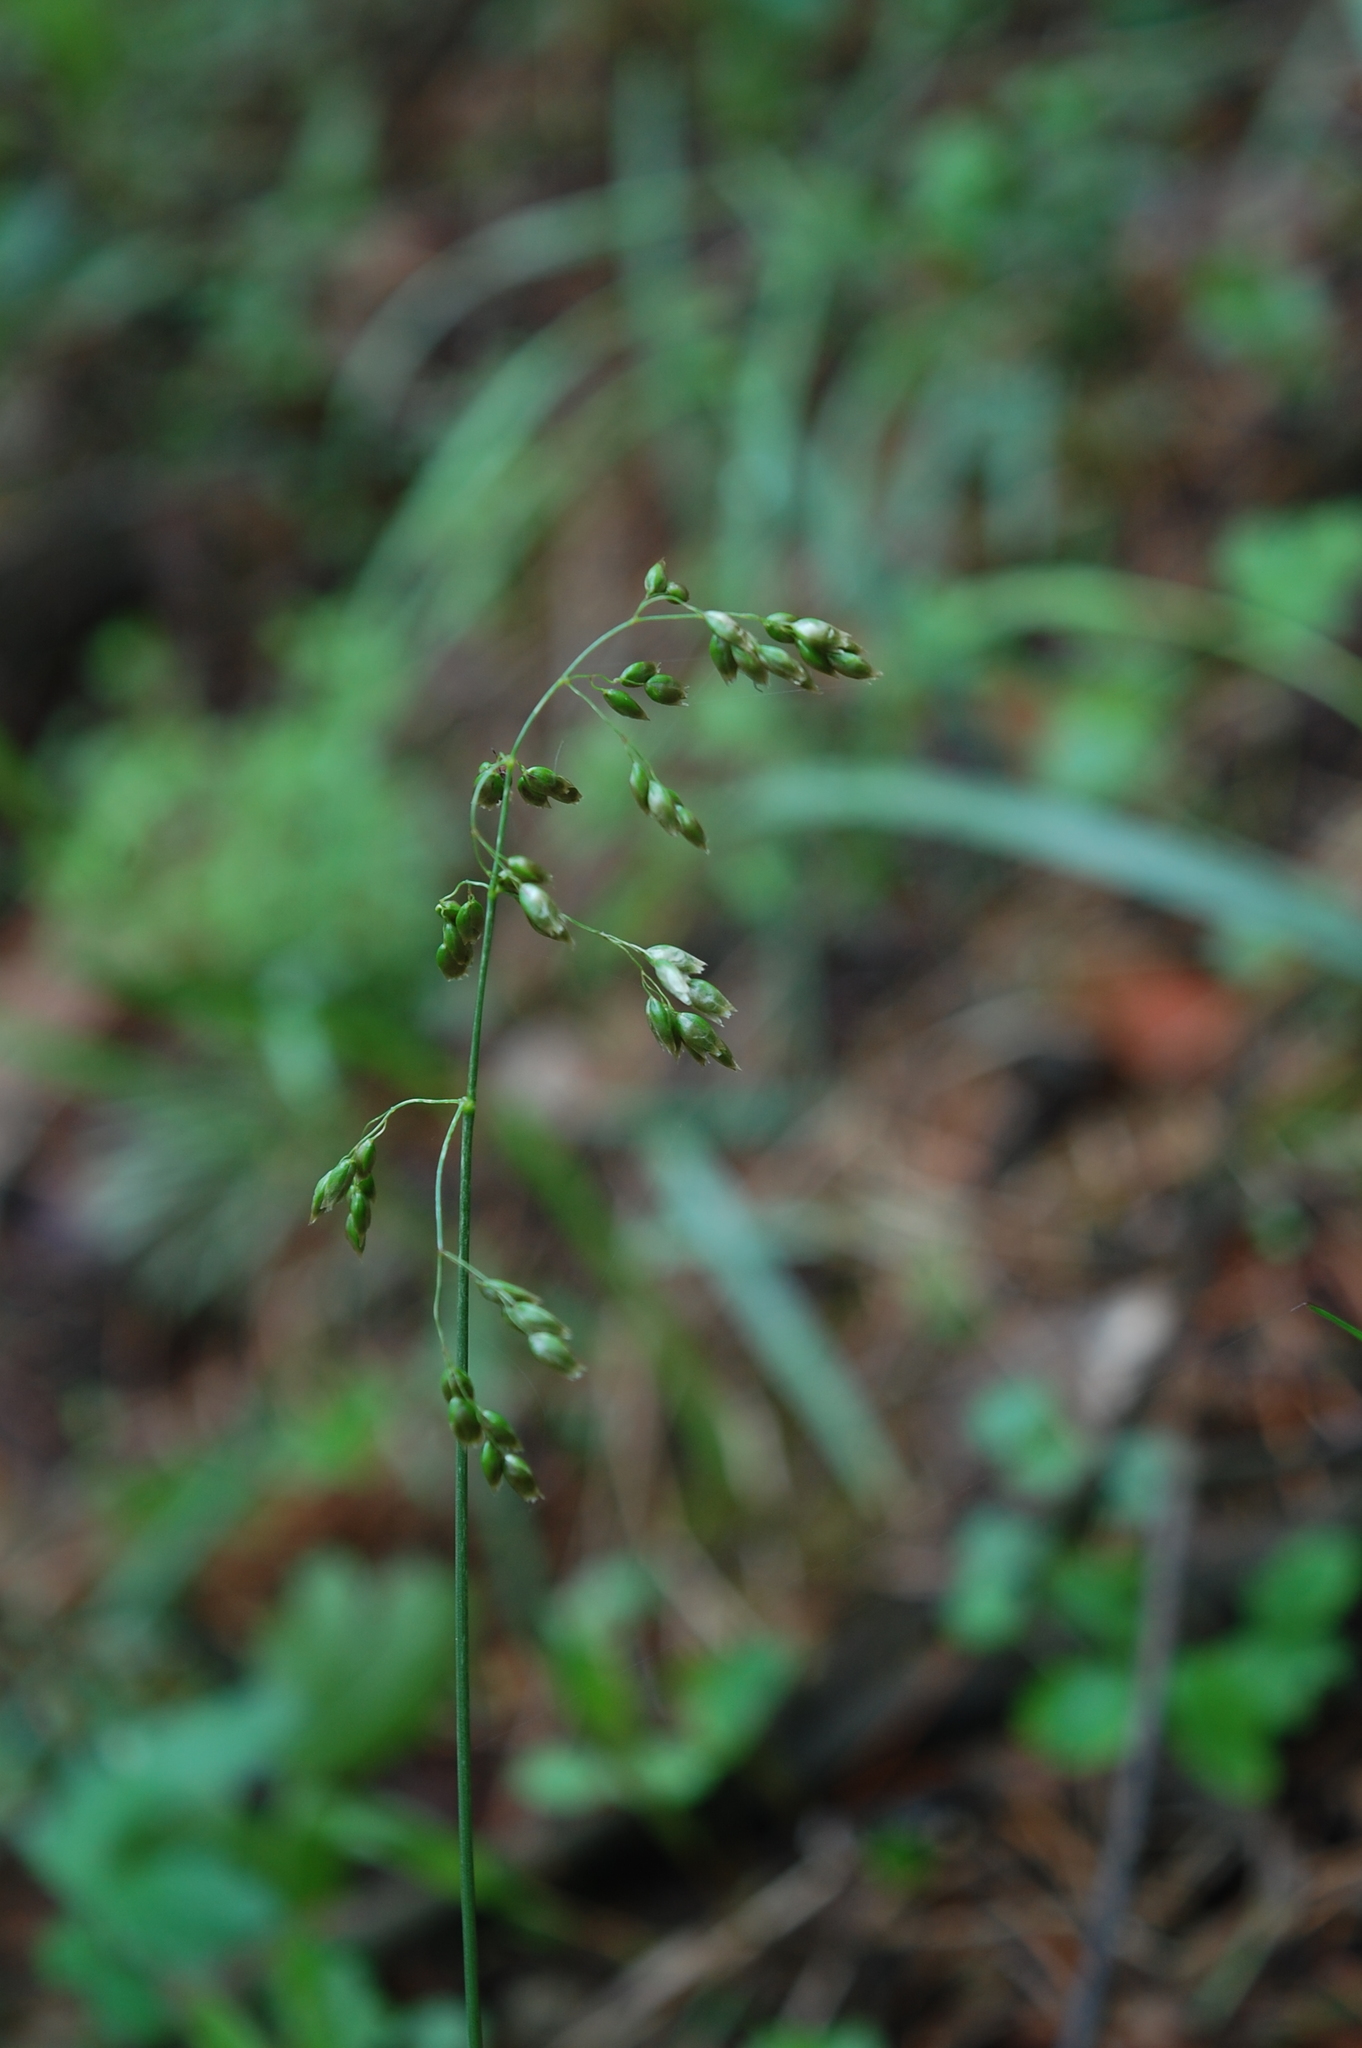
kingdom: Plantae
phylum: Tracheophyta
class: Liliopsida
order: Poales
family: Poaceae
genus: Anthoxanthum
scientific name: Anthoxanthum nitens
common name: Holy grass
